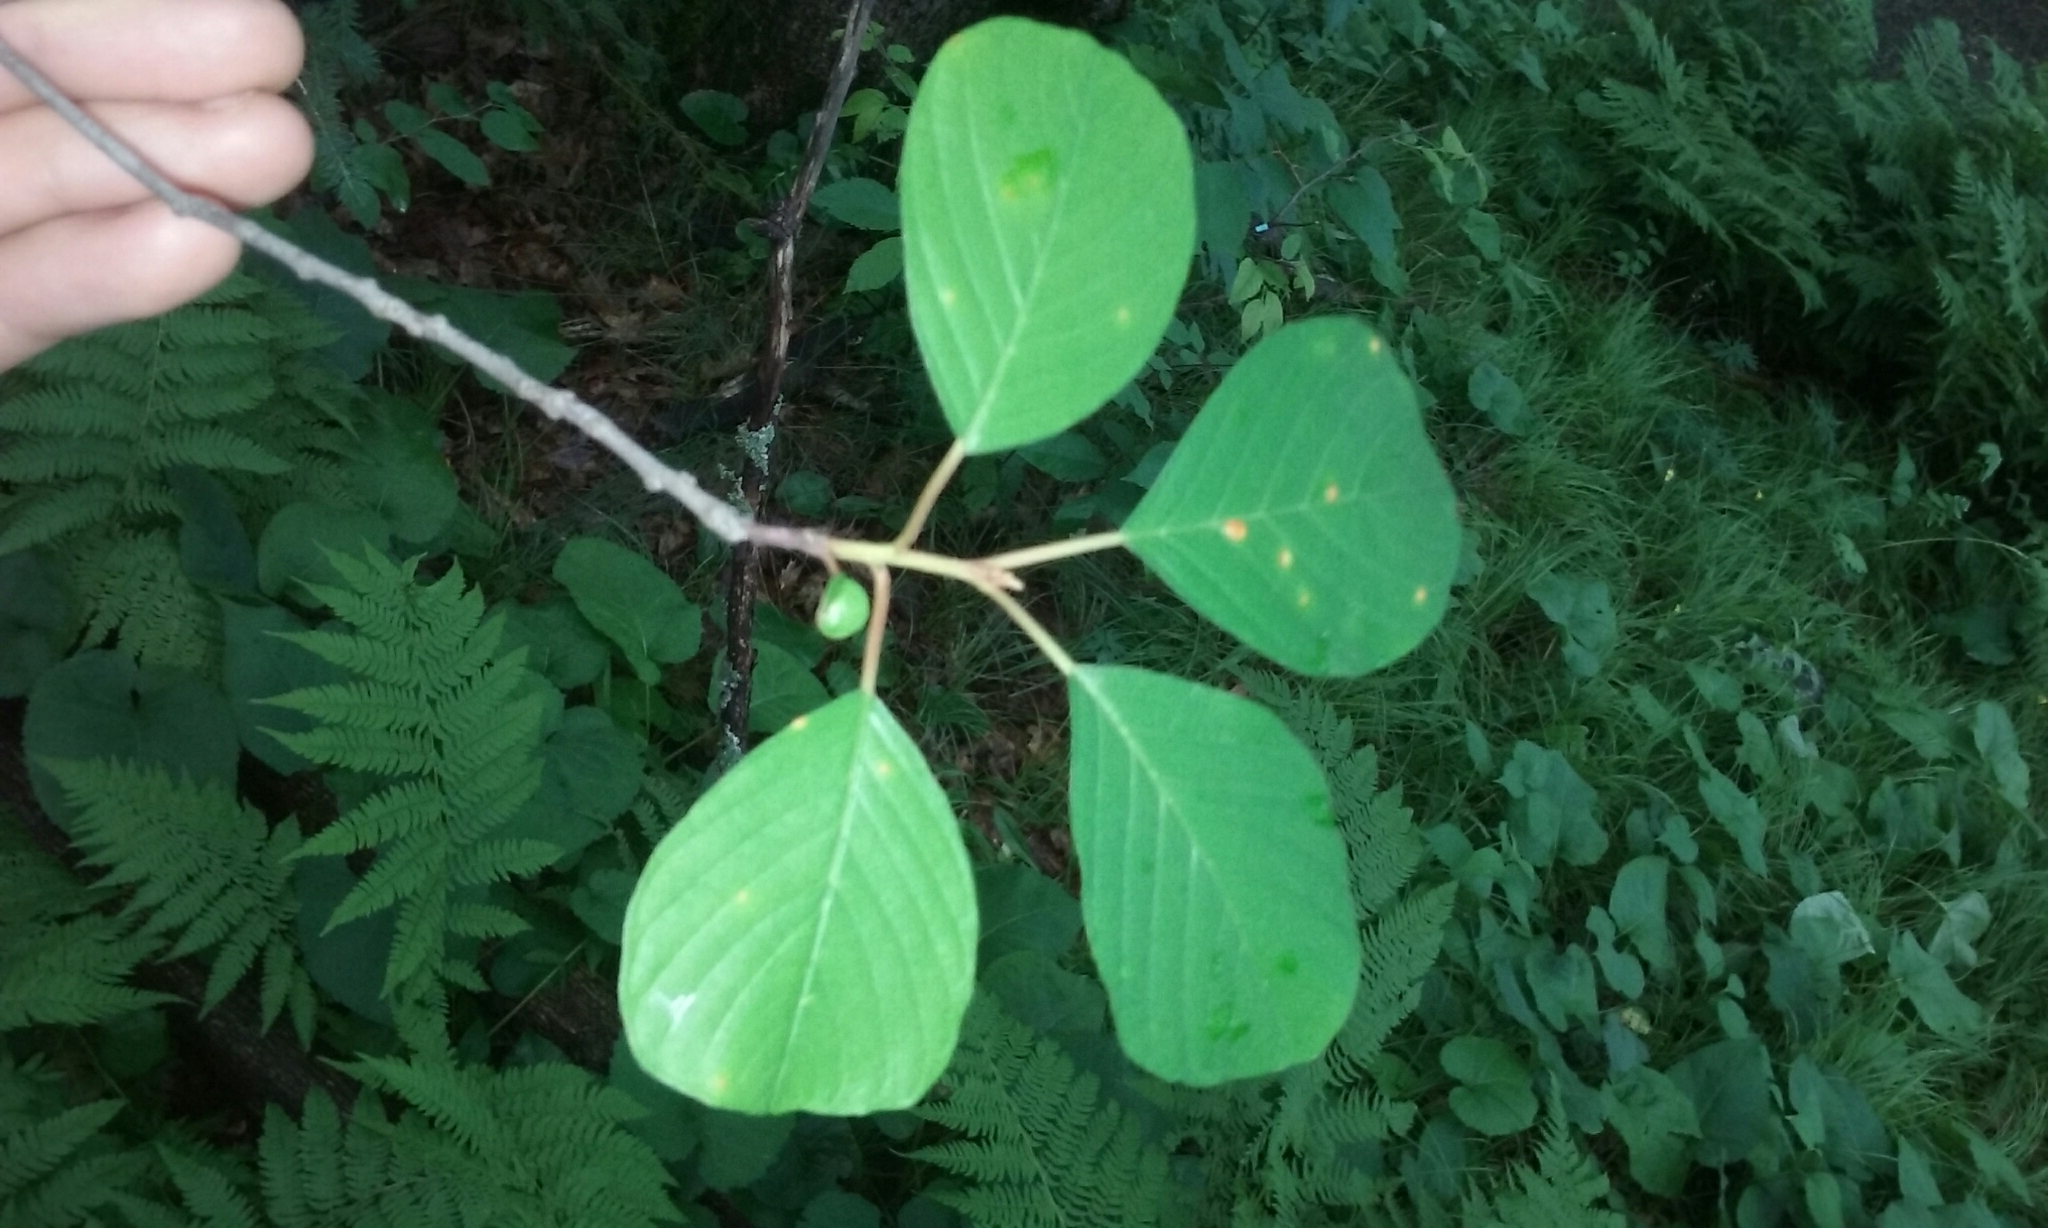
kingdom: Plantae
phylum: Tracheophyta
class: Magnoliopsida
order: Rosales
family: Rhamnaceae
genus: Frangula
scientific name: Frangula alnus
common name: Alder buckthorn
